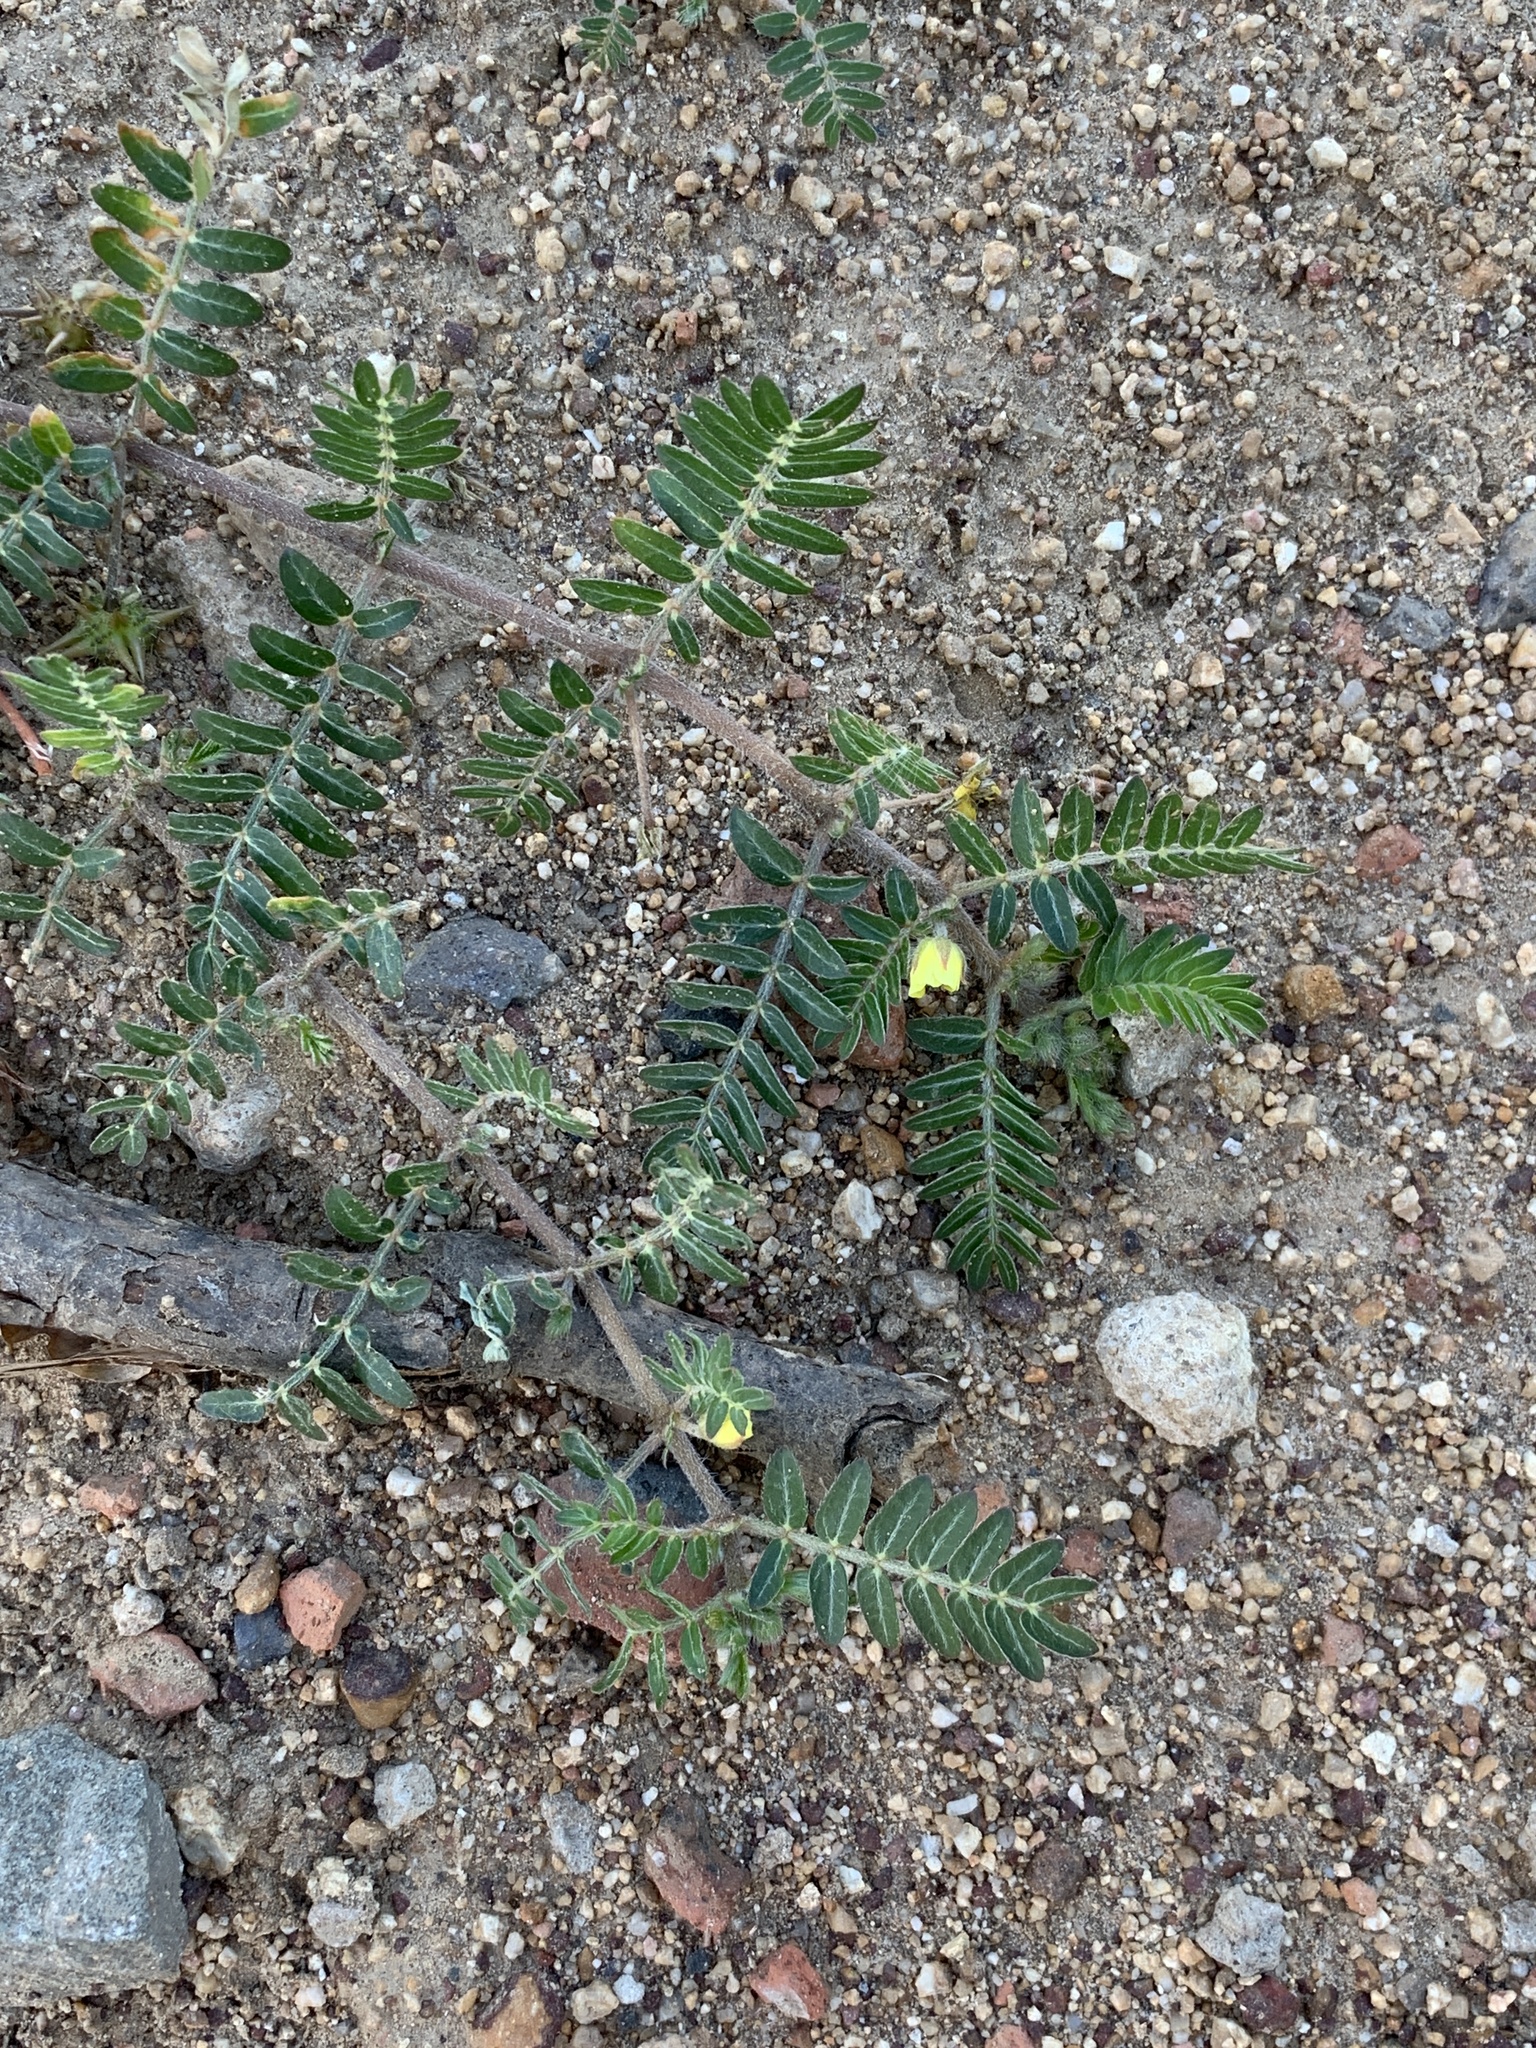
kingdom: Plantae
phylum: Tracheophyta
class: Magnoliopsida
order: Zygophyllales
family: Zygophyllaceae
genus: Tribulus
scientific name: Tribulus terrestris
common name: Puncturevine
